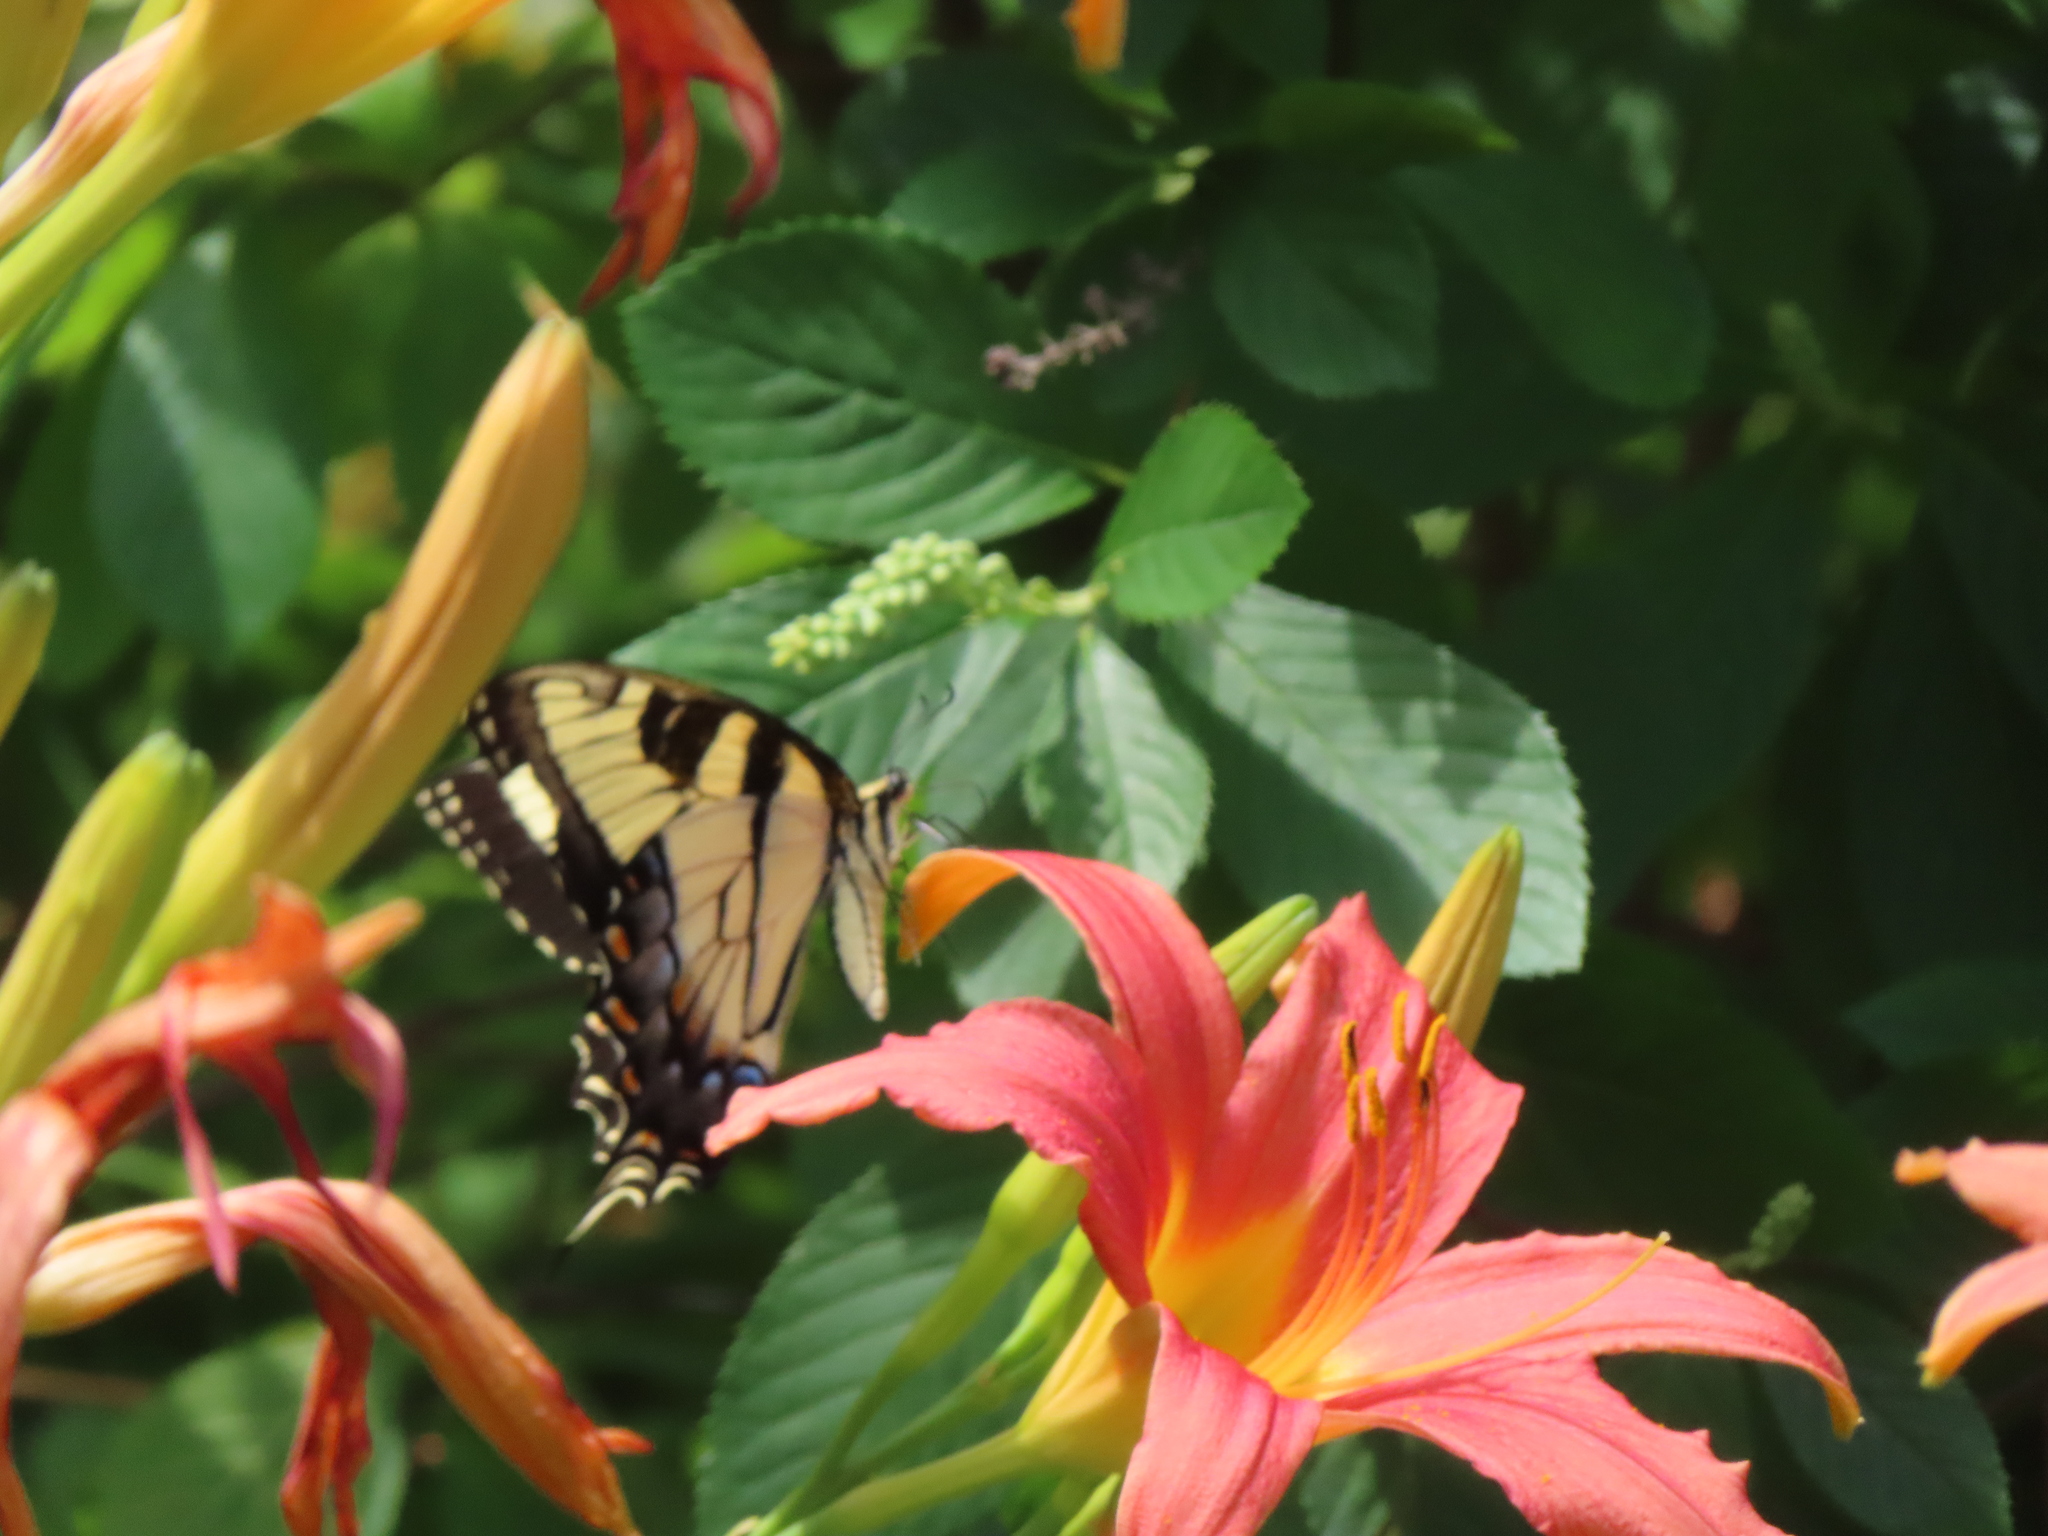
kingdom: Animalia
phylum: Arthropoda
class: Insecta
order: Lepidoptera
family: Papilionidae
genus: Papilio
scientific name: Papilio glaucus
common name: Tiger swallowtail
